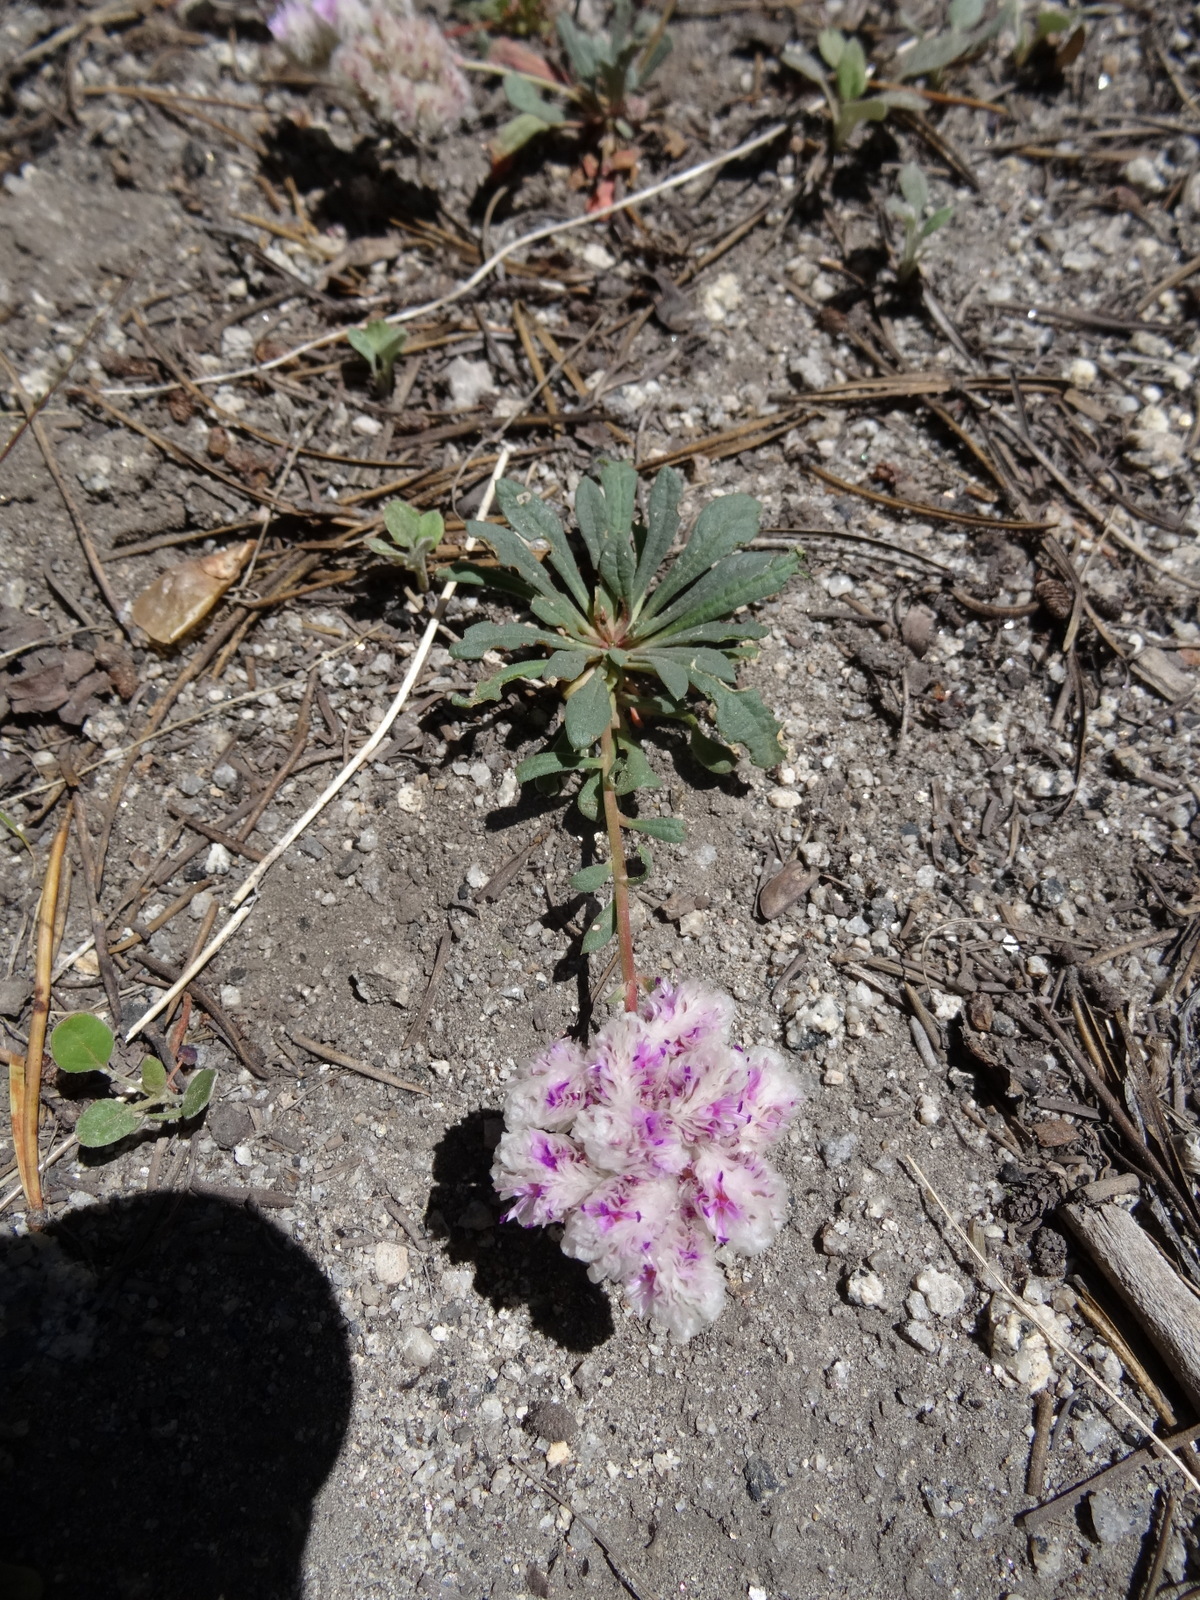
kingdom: Plantae
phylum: Tracheophyta
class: Magnoliopsida
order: Caryophyllales
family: Montiaceae
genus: Calyptridium
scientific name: Calyptridium monospermum
